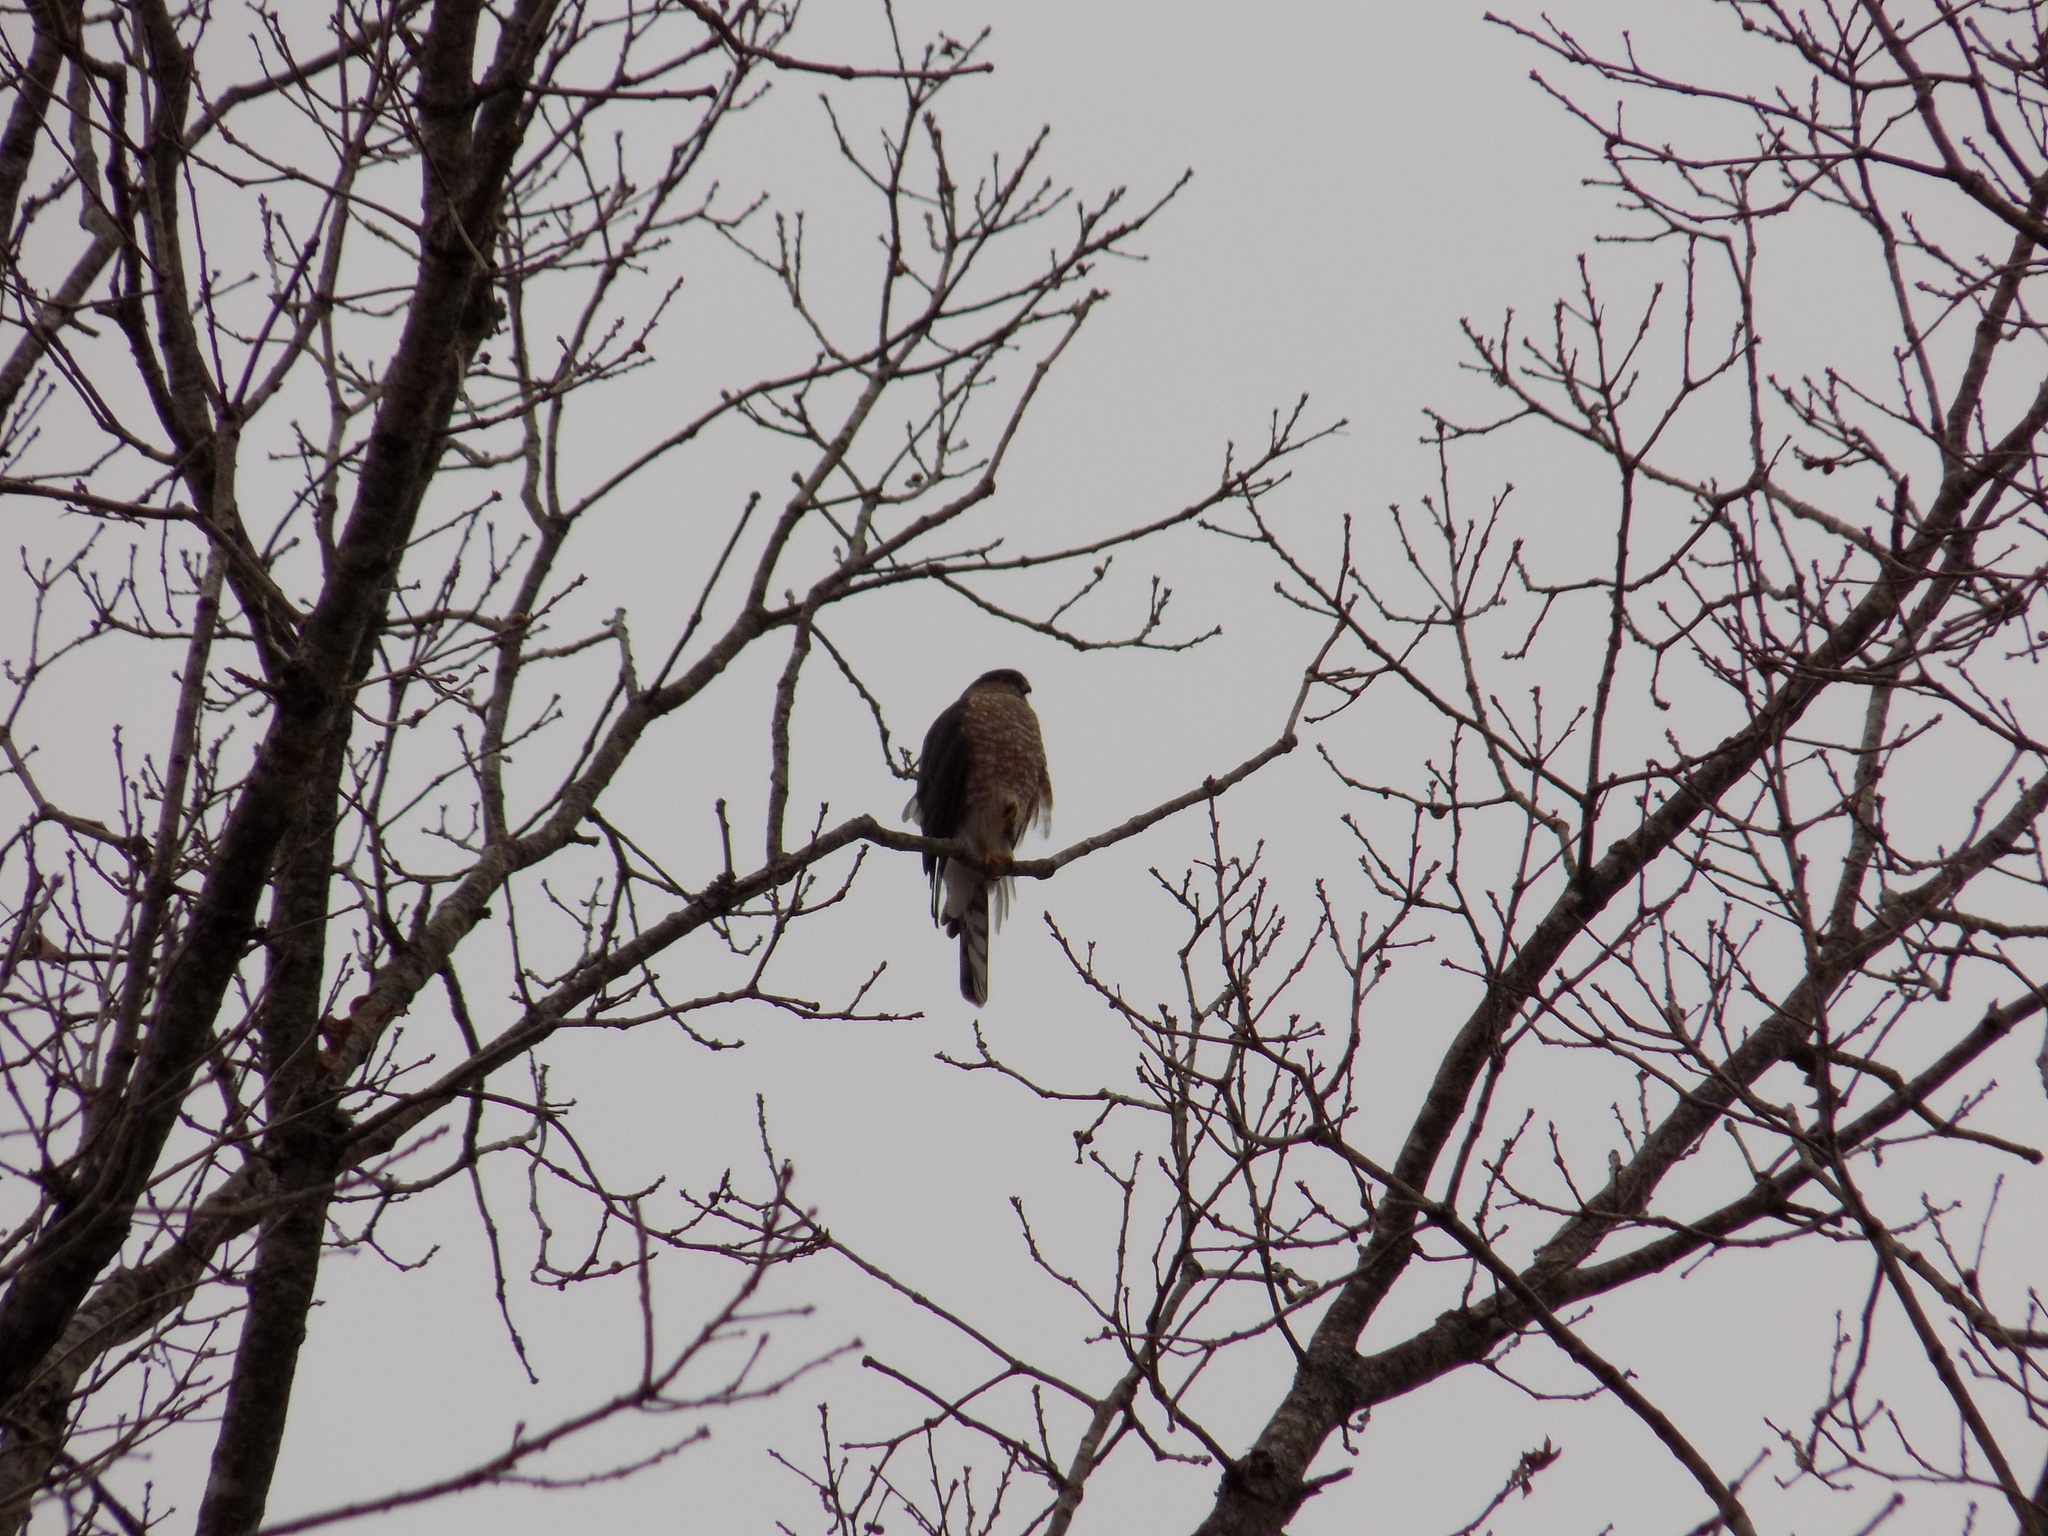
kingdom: Animalia
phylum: Chordata
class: Aves
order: Accipitriformes
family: Accipitridae
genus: Accipiter
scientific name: Accipiter striatus
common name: Sharp-shinned hawk
